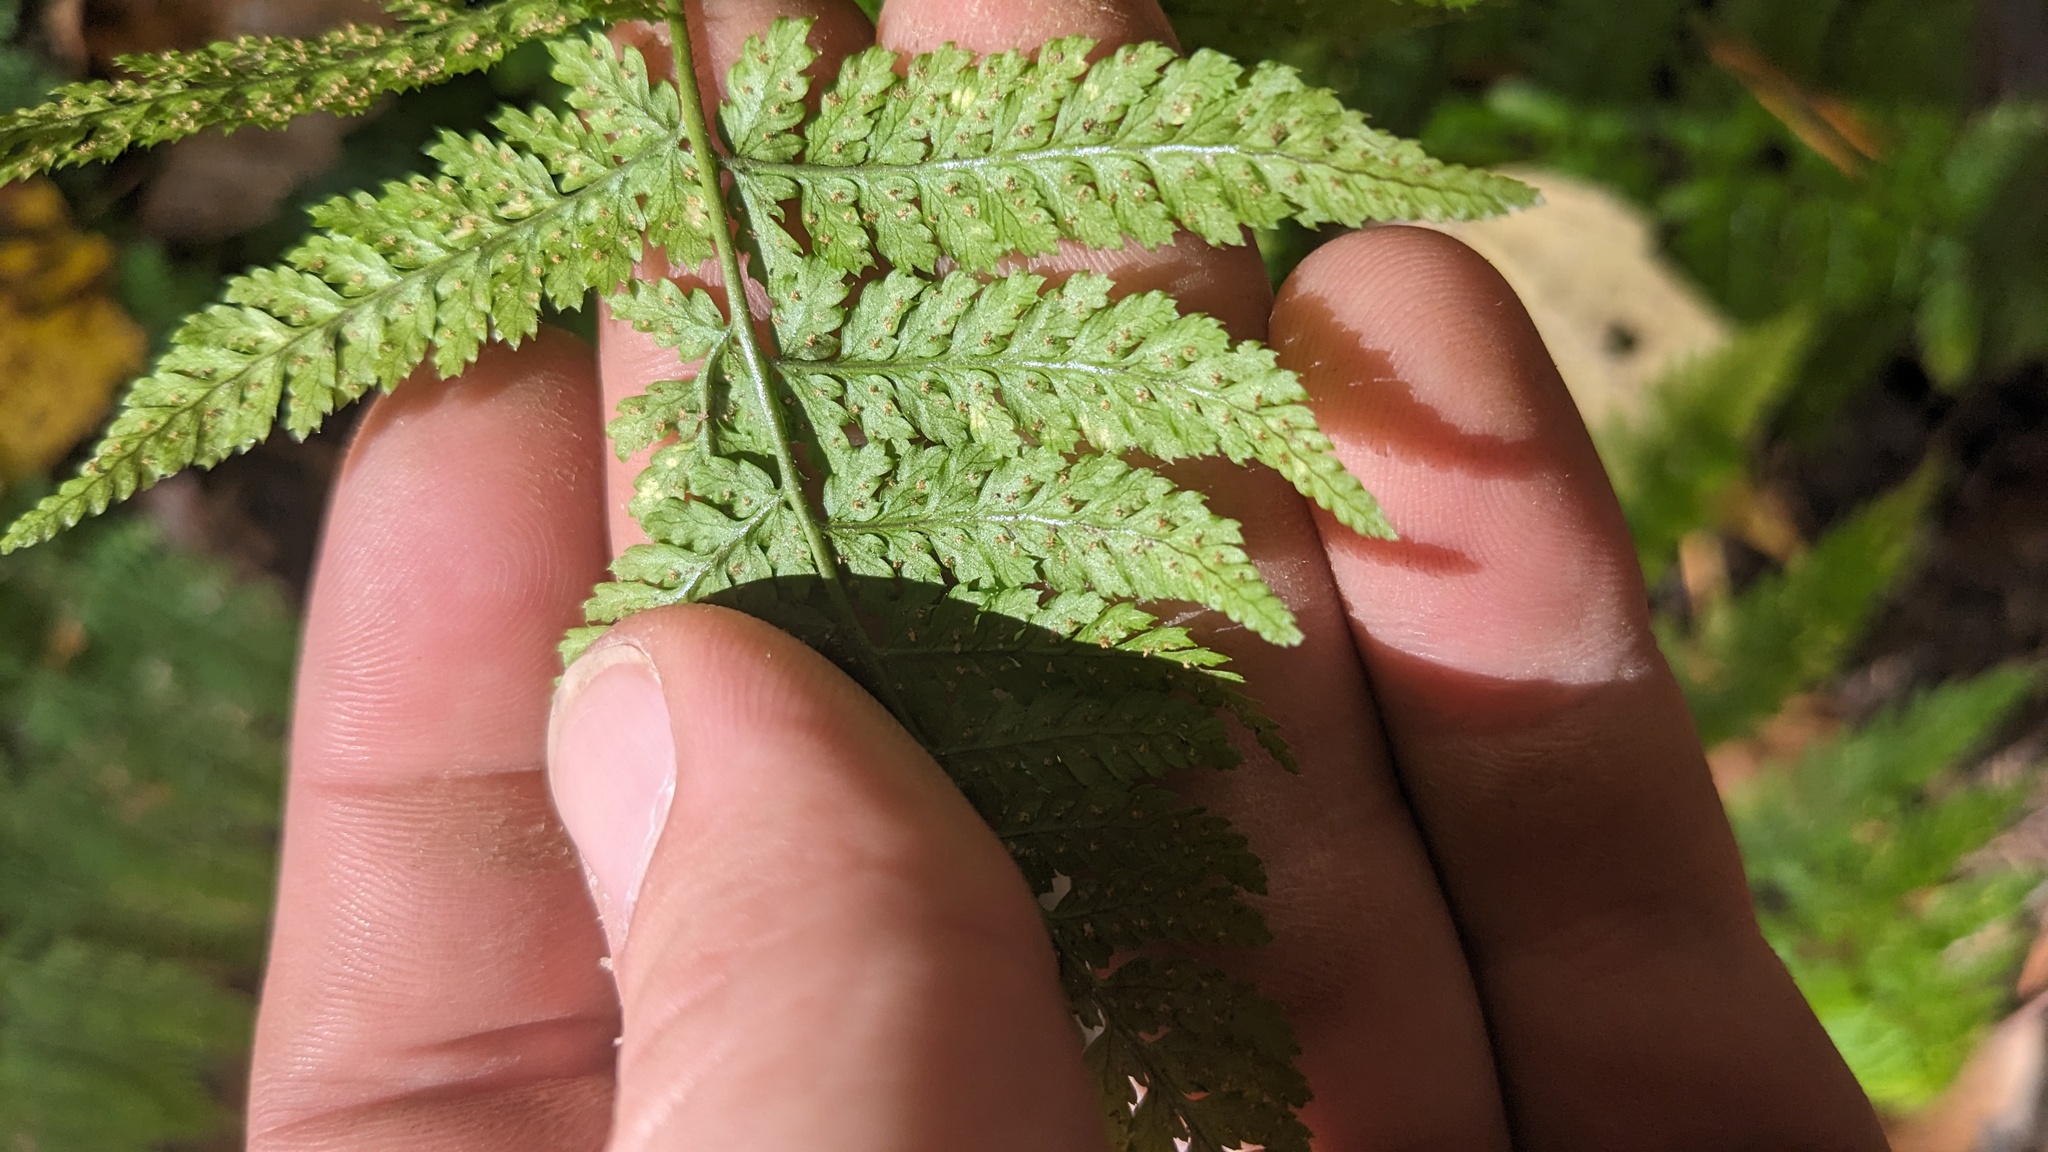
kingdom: Plantae
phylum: Tracheophyta
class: Polypodiopsida
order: Polypodiales
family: Dryopteridaceae
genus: Dryopteris
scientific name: Dryopteris intermedia
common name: Evergreen wood fern
